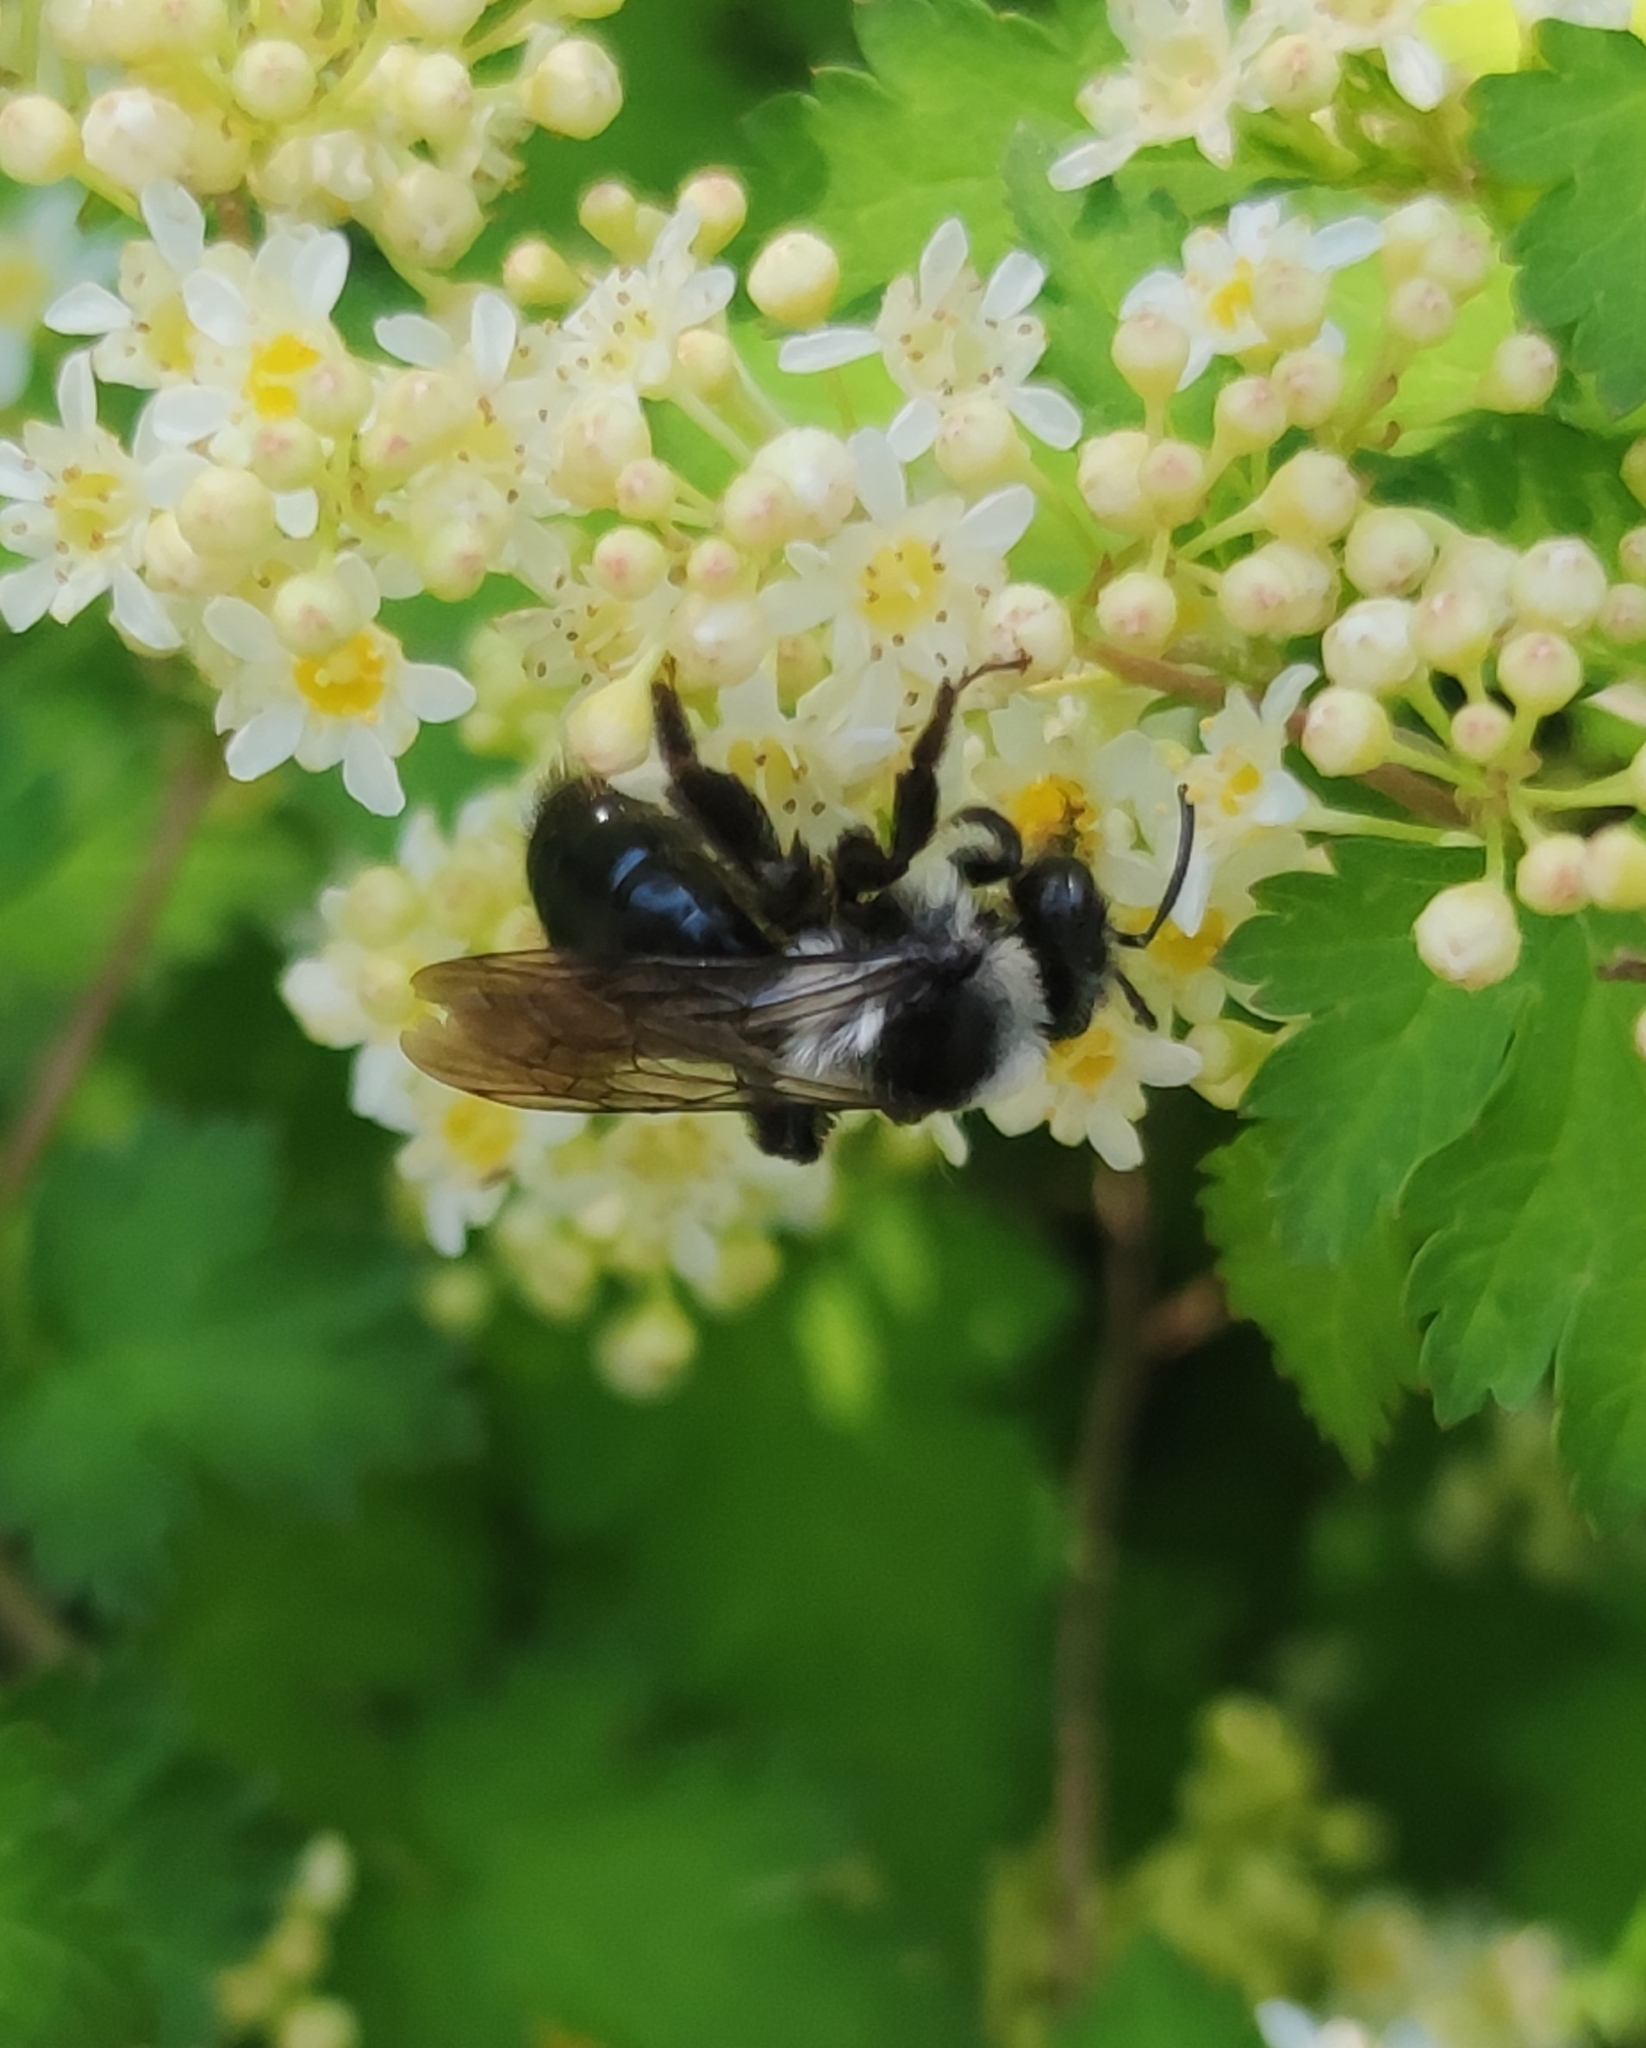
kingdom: Animalia
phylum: Arthropoda
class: Insecta
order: Hymenoptera
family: Andrenidae
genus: Andrena
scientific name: Andrena cineraria
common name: Ashy mining bee
